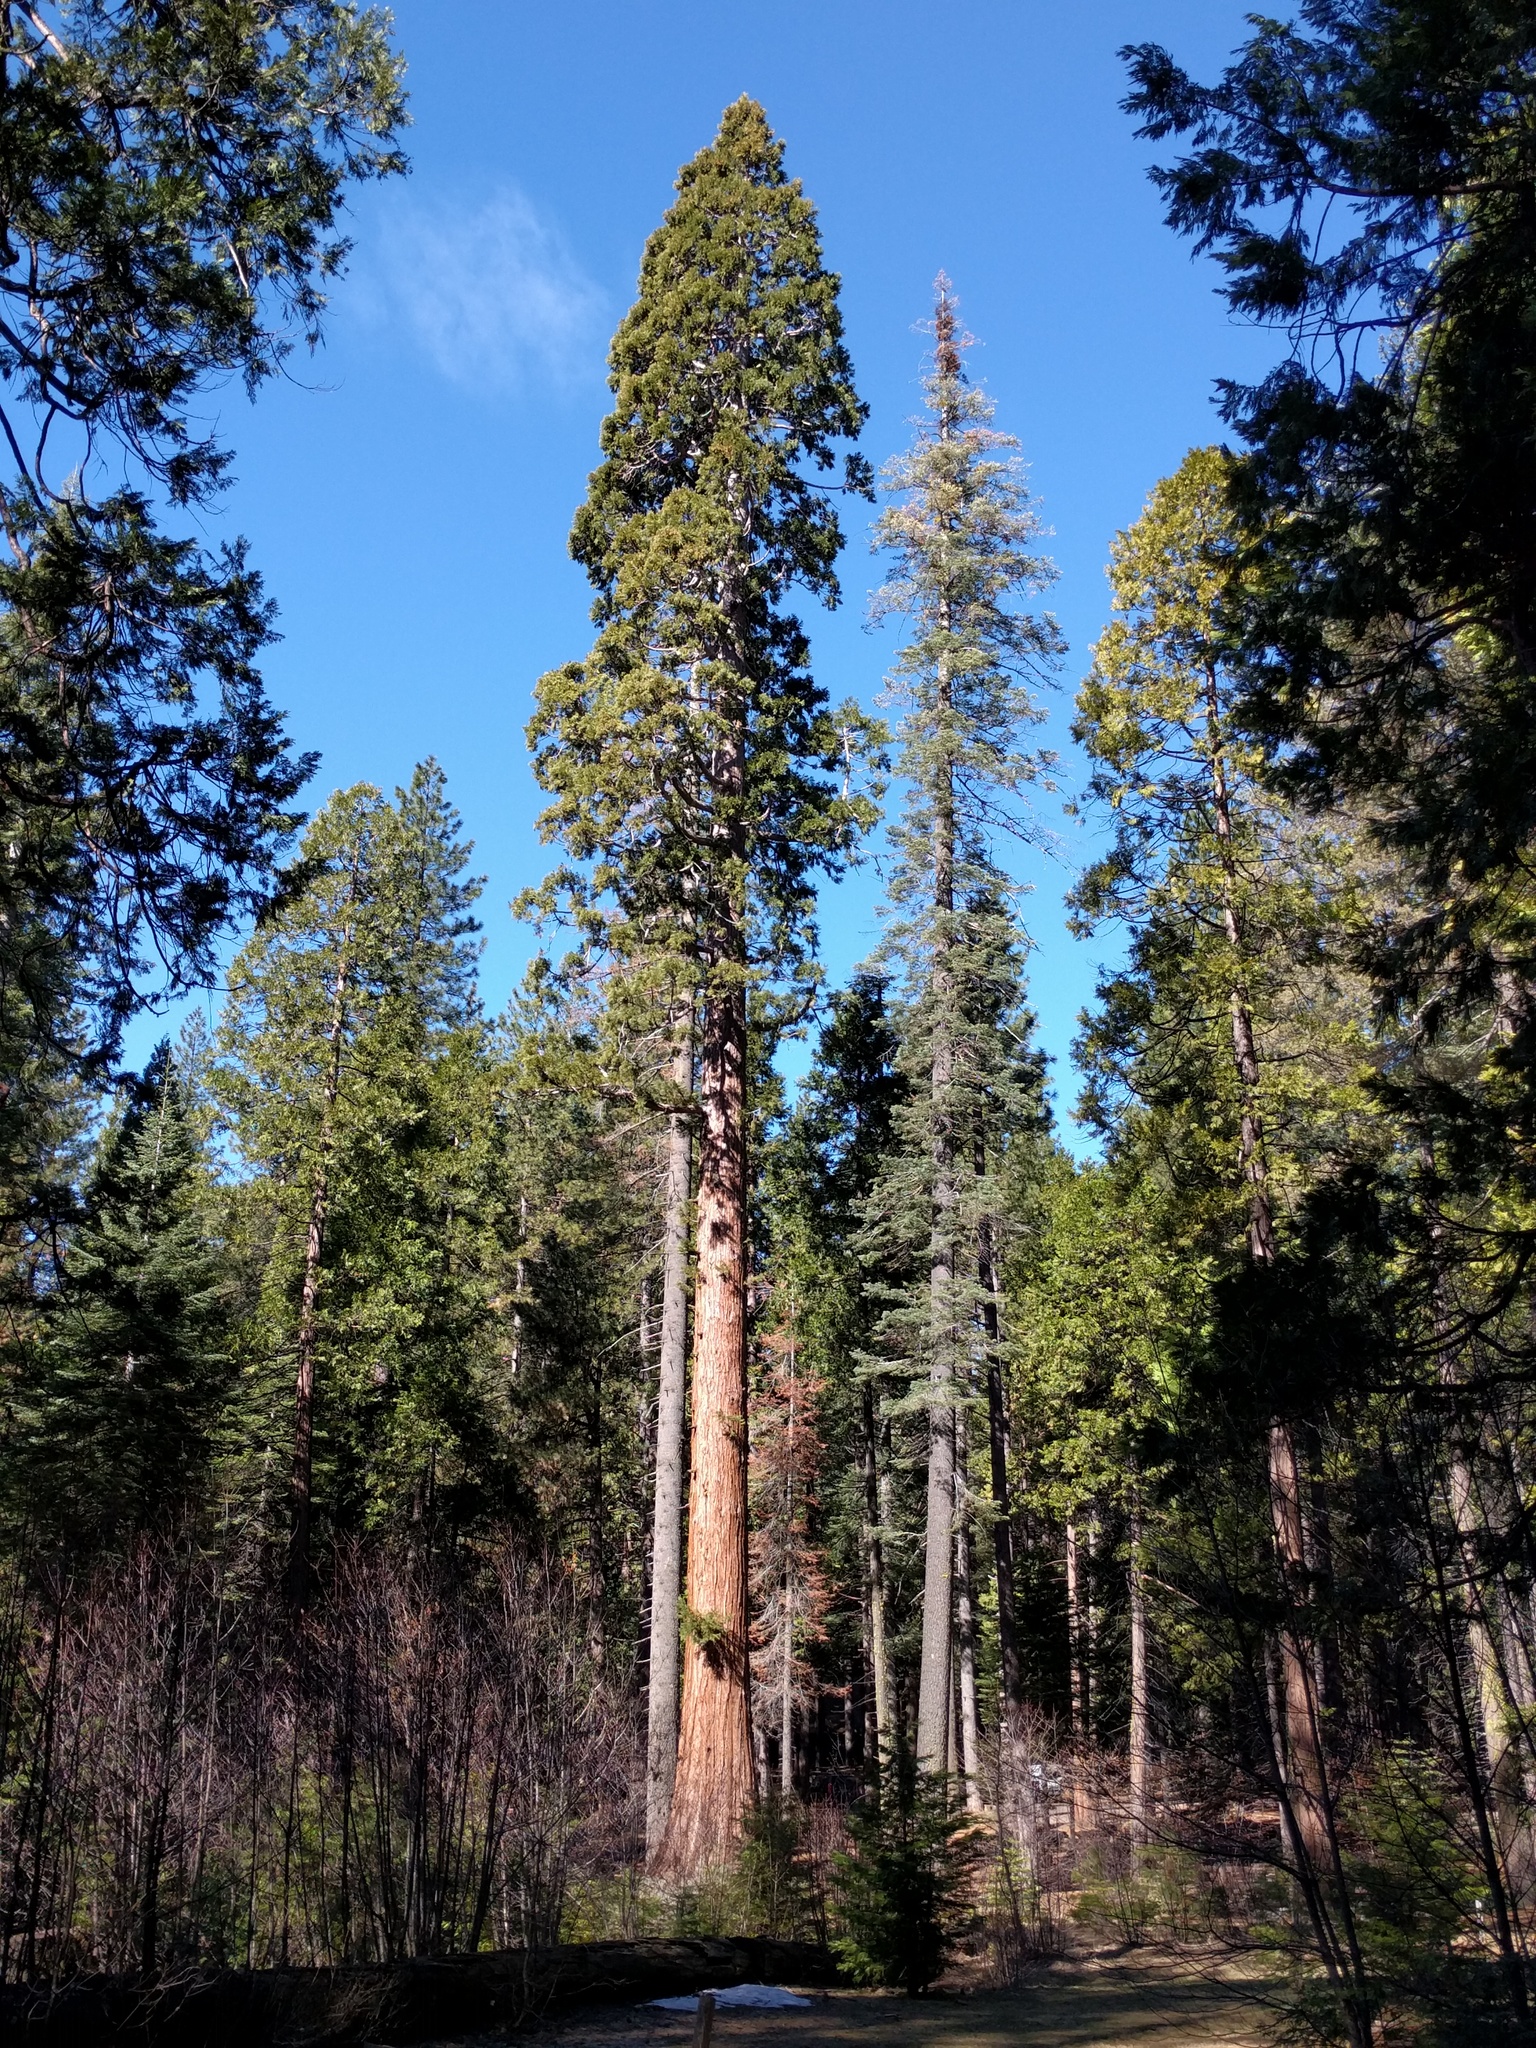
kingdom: Plantae
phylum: Tracheophyta
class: Pinopsida
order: Pinales
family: Cupressaceae
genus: Sequoiadendron
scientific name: Sequoiadendron giganteum
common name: Wellingtonia
